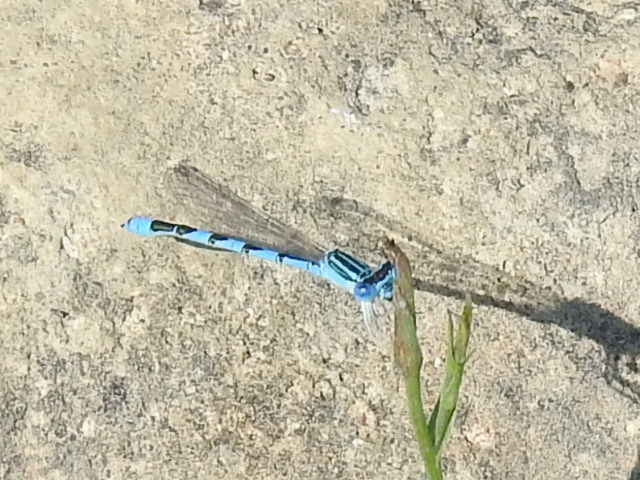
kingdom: Animalia
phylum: Arthropoda
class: Insecta
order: Odonata
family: Coenagrionidae
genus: Enallagma
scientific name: Enallagma basidens
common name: Double-striped bluet
